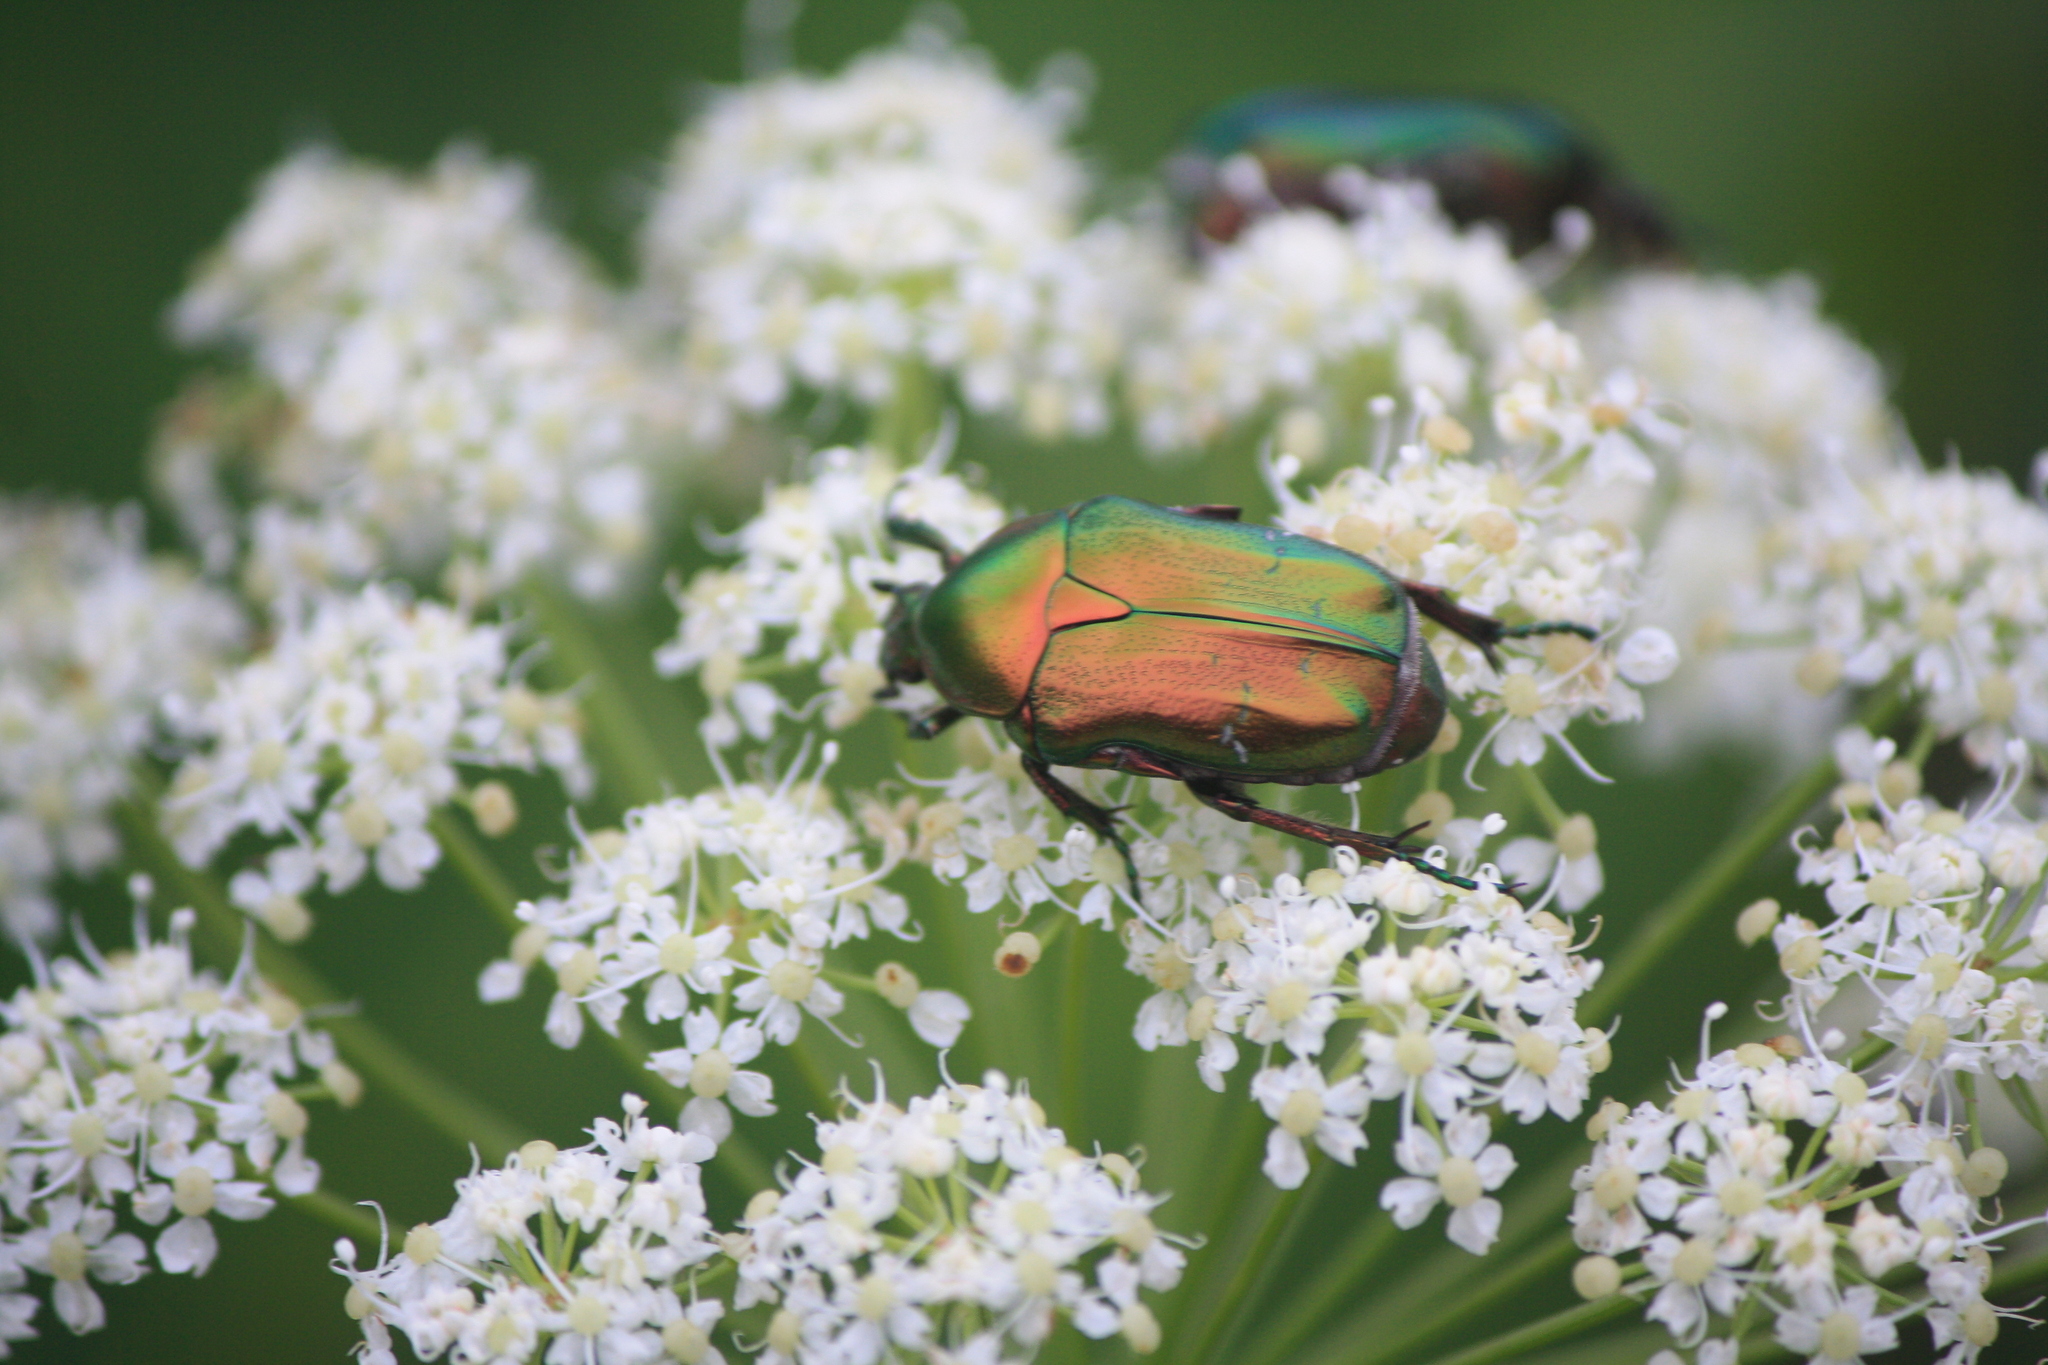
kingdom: Animalia
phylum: Arthropoda
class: Insecta
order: Coleoptera
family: Scarabaeidae
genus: Cetonia
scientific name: Cetonia aurata
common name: Rose chafer
